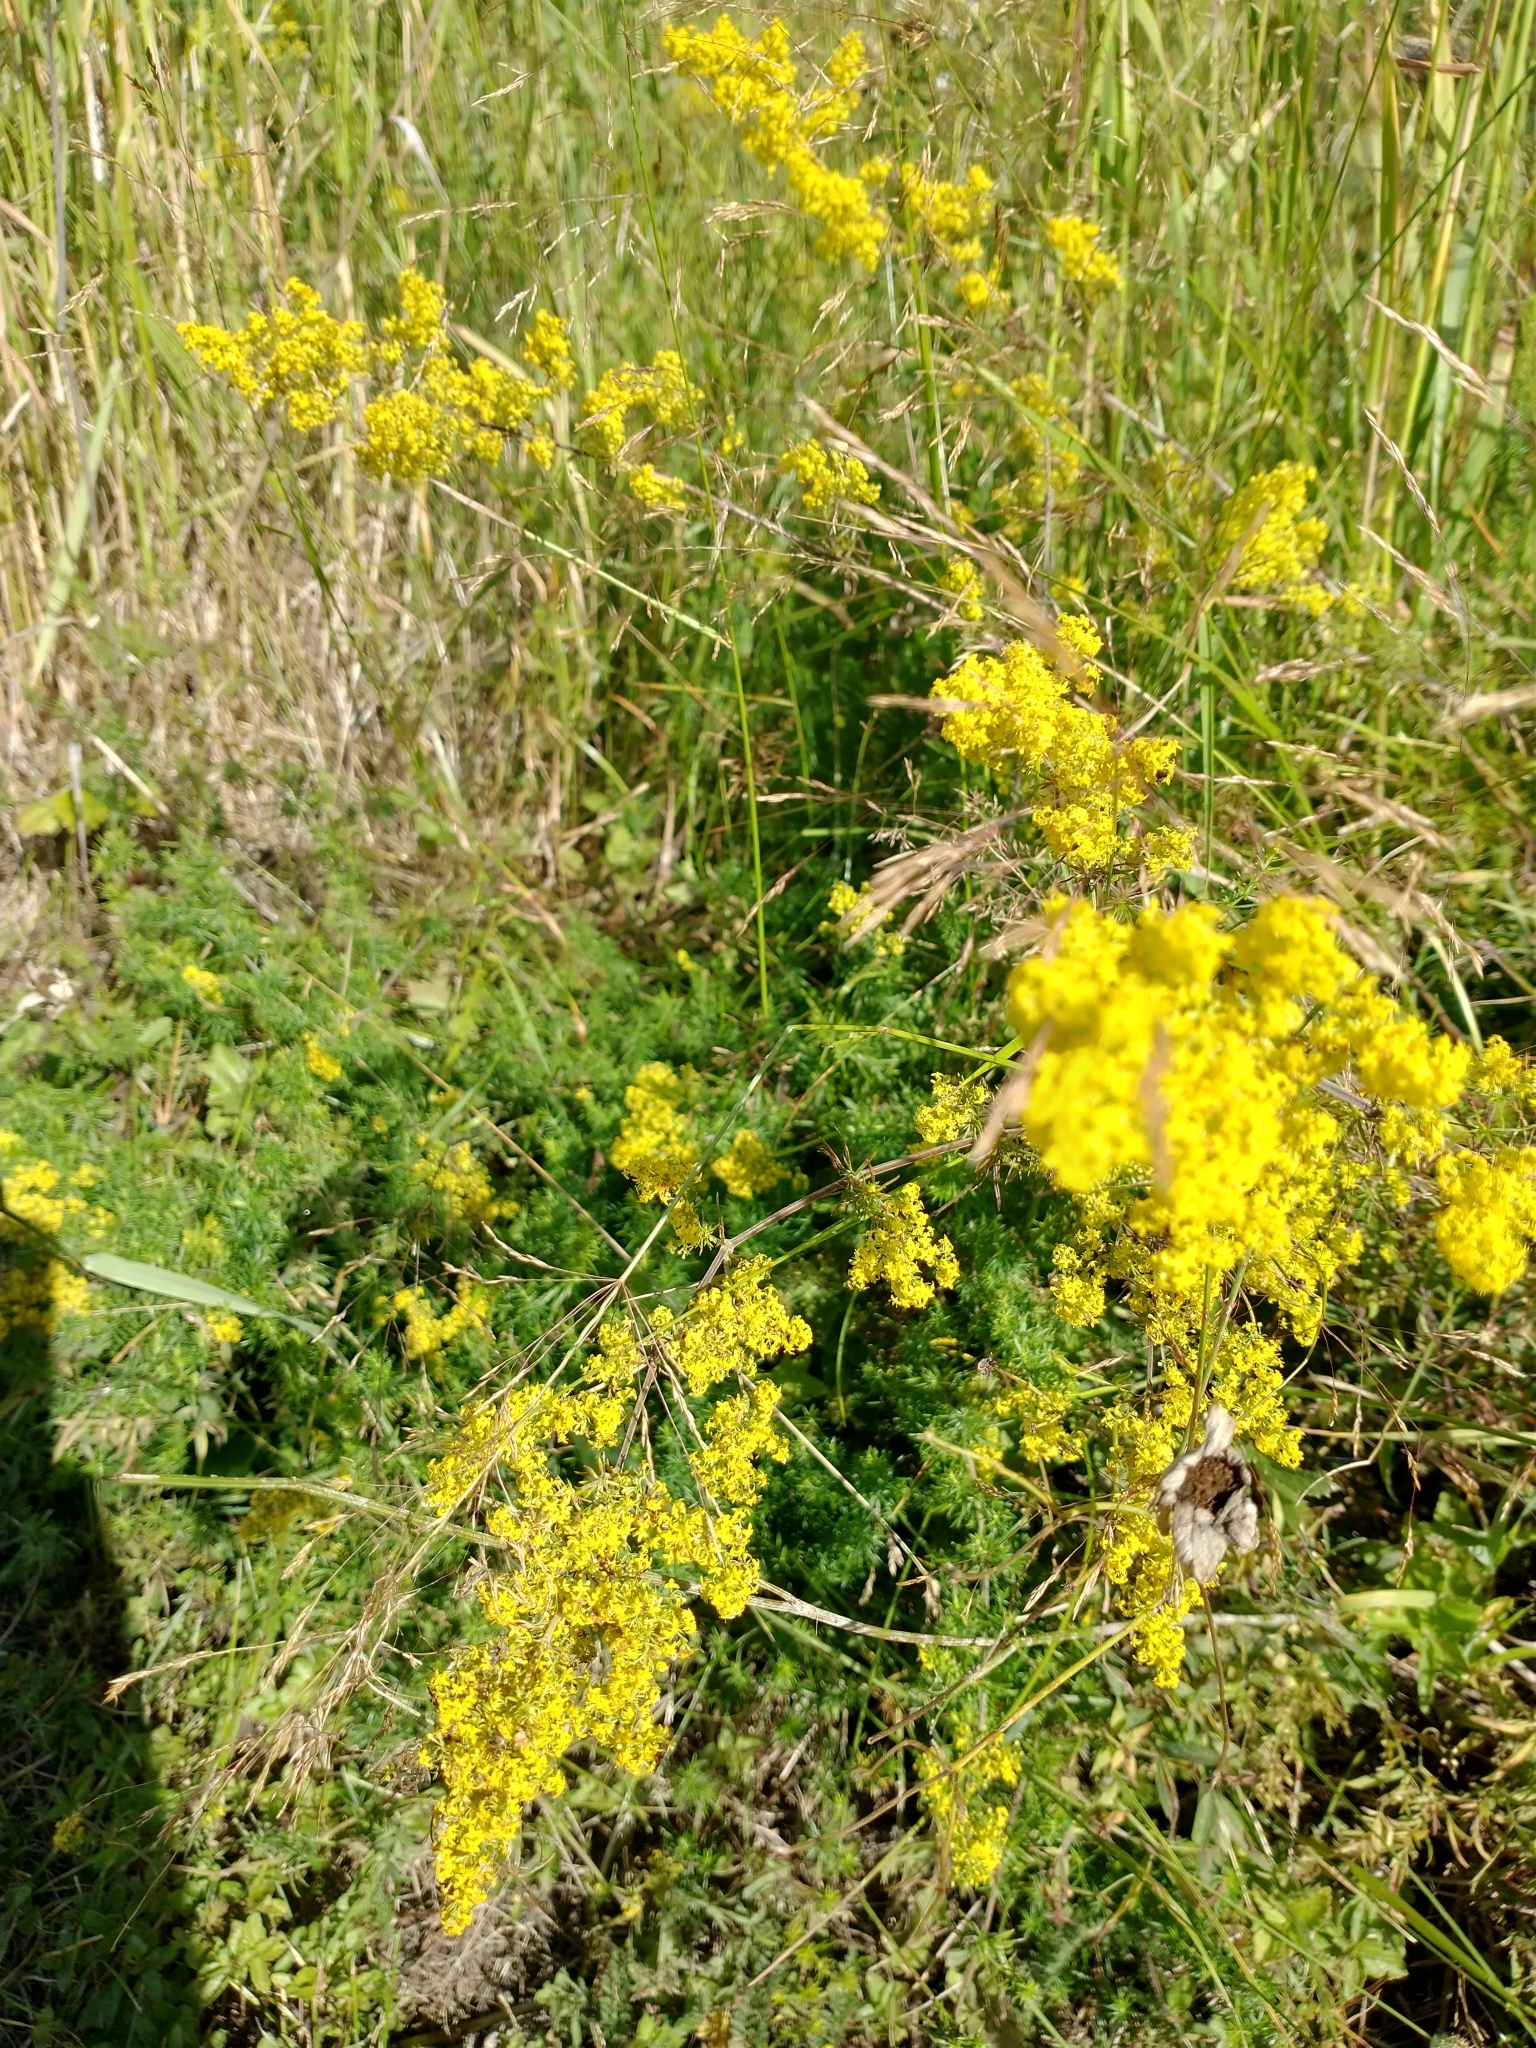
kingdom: Plantae
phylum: Tracheophyta
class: Magnoliopsida
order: Gentianales
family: Rubiaceae
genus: Galium
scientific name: Galium verum
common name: Lady's bedstraw
